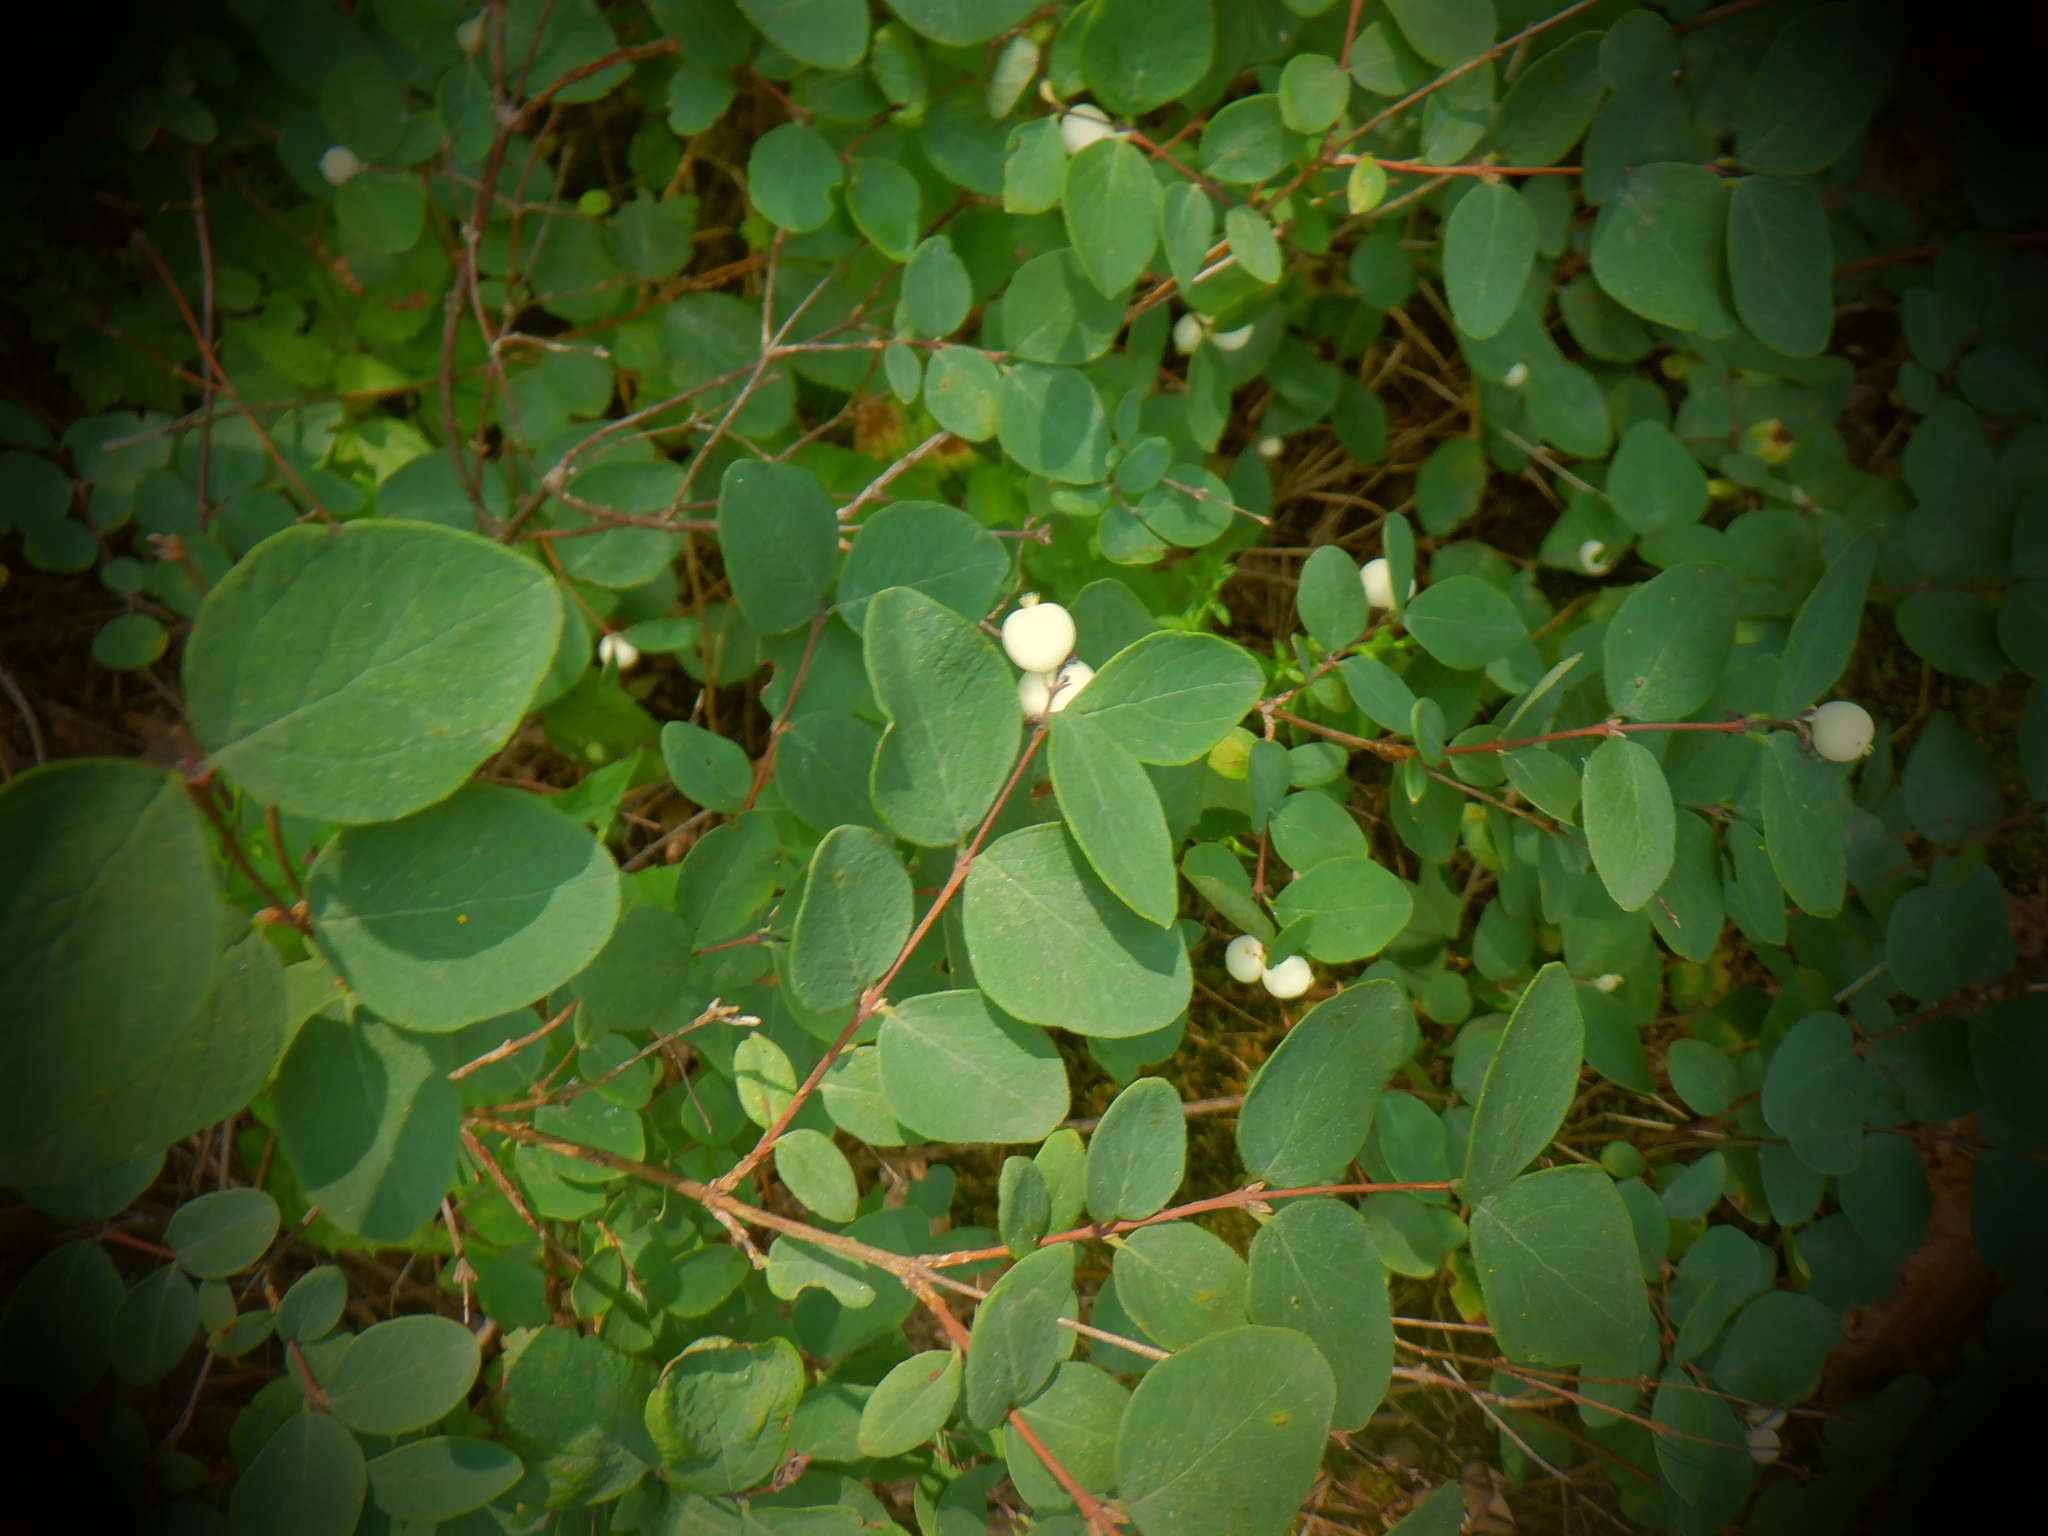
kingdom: Plantae
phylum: Tracheophyta
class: Magnoliopsida
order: Dipsacales
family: Caprifoliaceae
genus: Symphoricarpos
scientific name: Symphoricarpos albus
